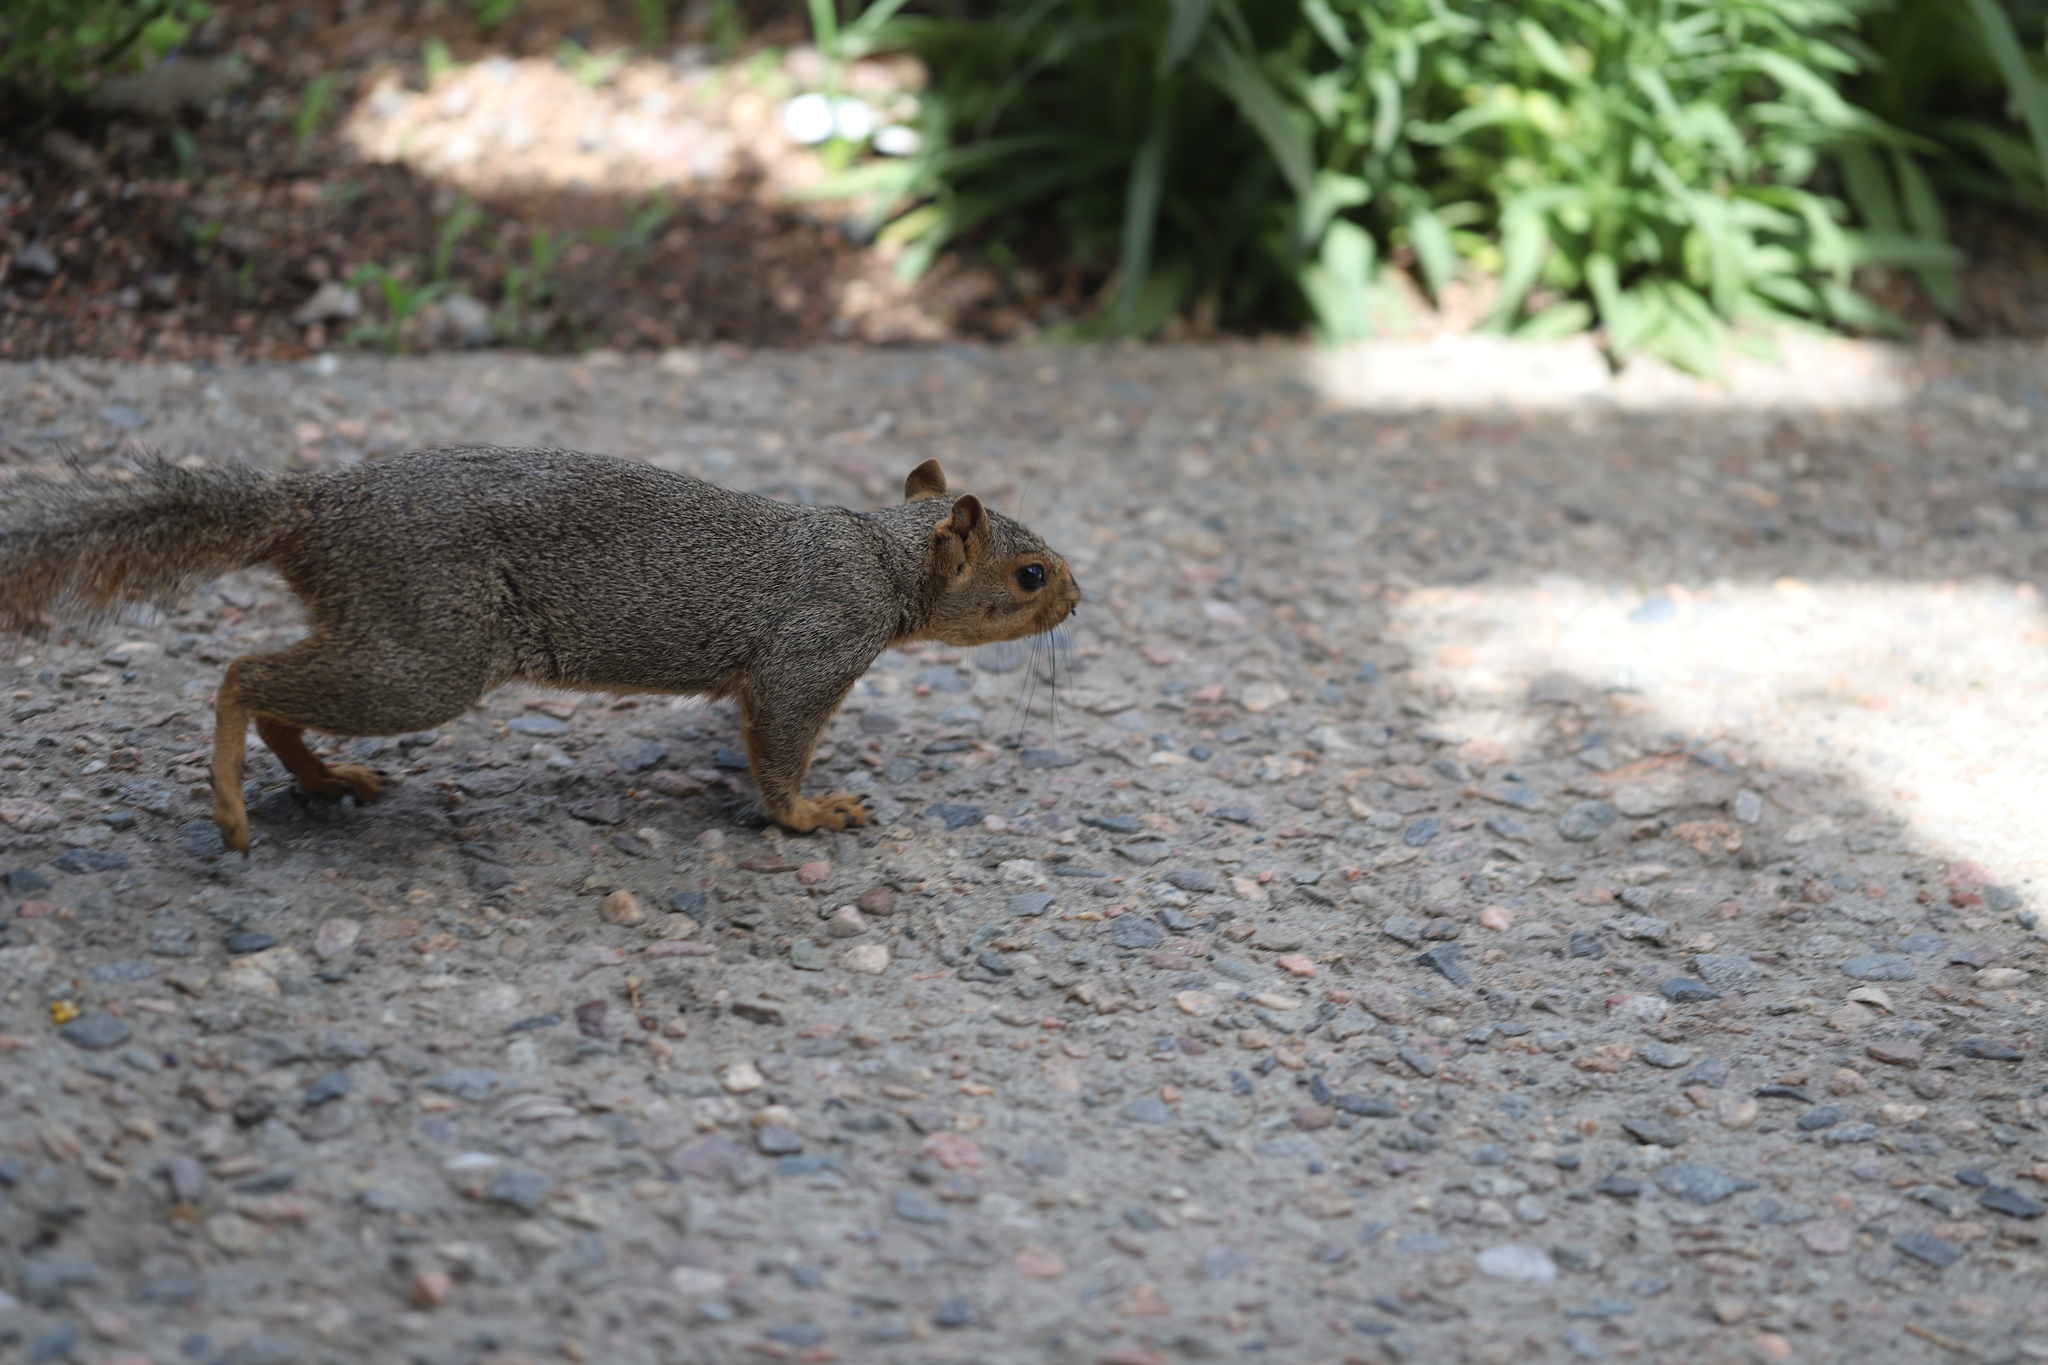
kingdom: Animalia
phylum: Chordata
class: Mammalia
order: Rodentia
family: Sciuridae
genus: Sciurus
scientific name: Sciurus niger
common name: Fox squirrel
